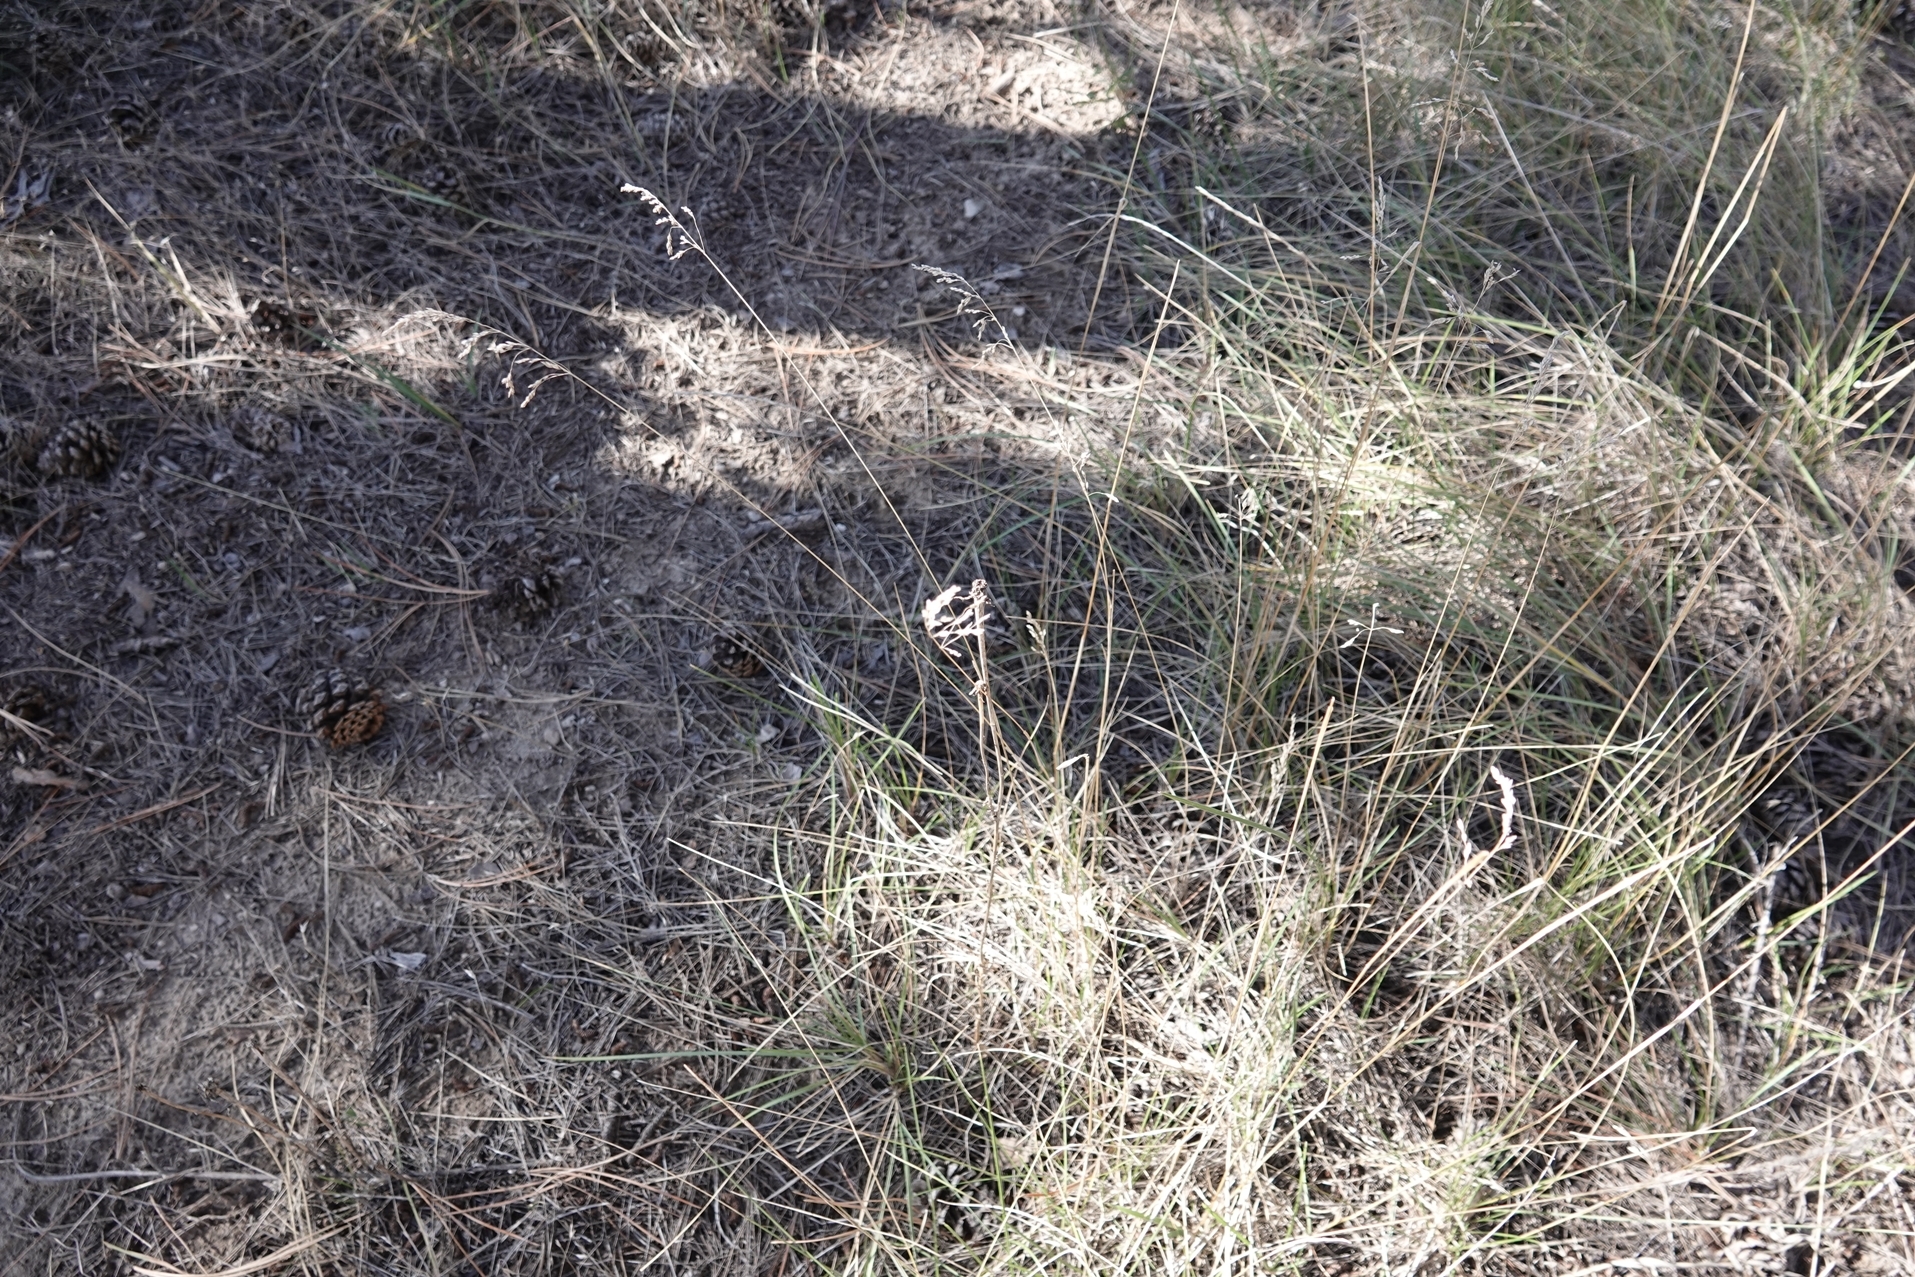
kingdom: Plantae
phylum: Tracheophyta
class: Liliopsida
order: Poales
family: Poaceae
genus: Poa
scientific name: Poa pratensis
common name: Kentucky bluegrass
